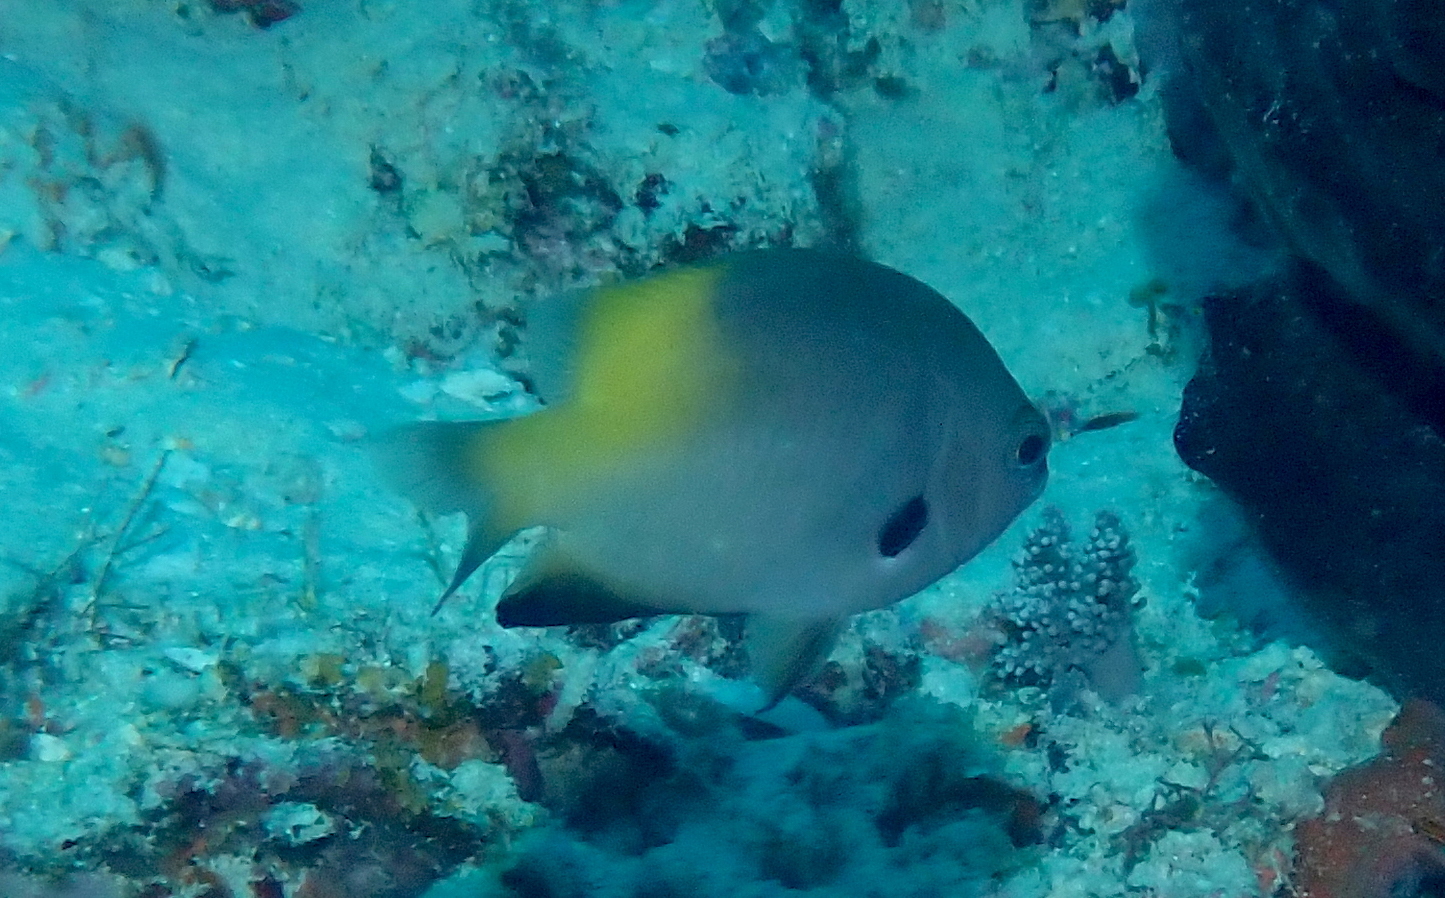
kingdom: Animalia
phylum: Chordata
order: Perciformes
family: Pomacentridae
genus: Pomacentrus
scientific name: Pomacentrus nigromanus
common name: Black-axil damsel
